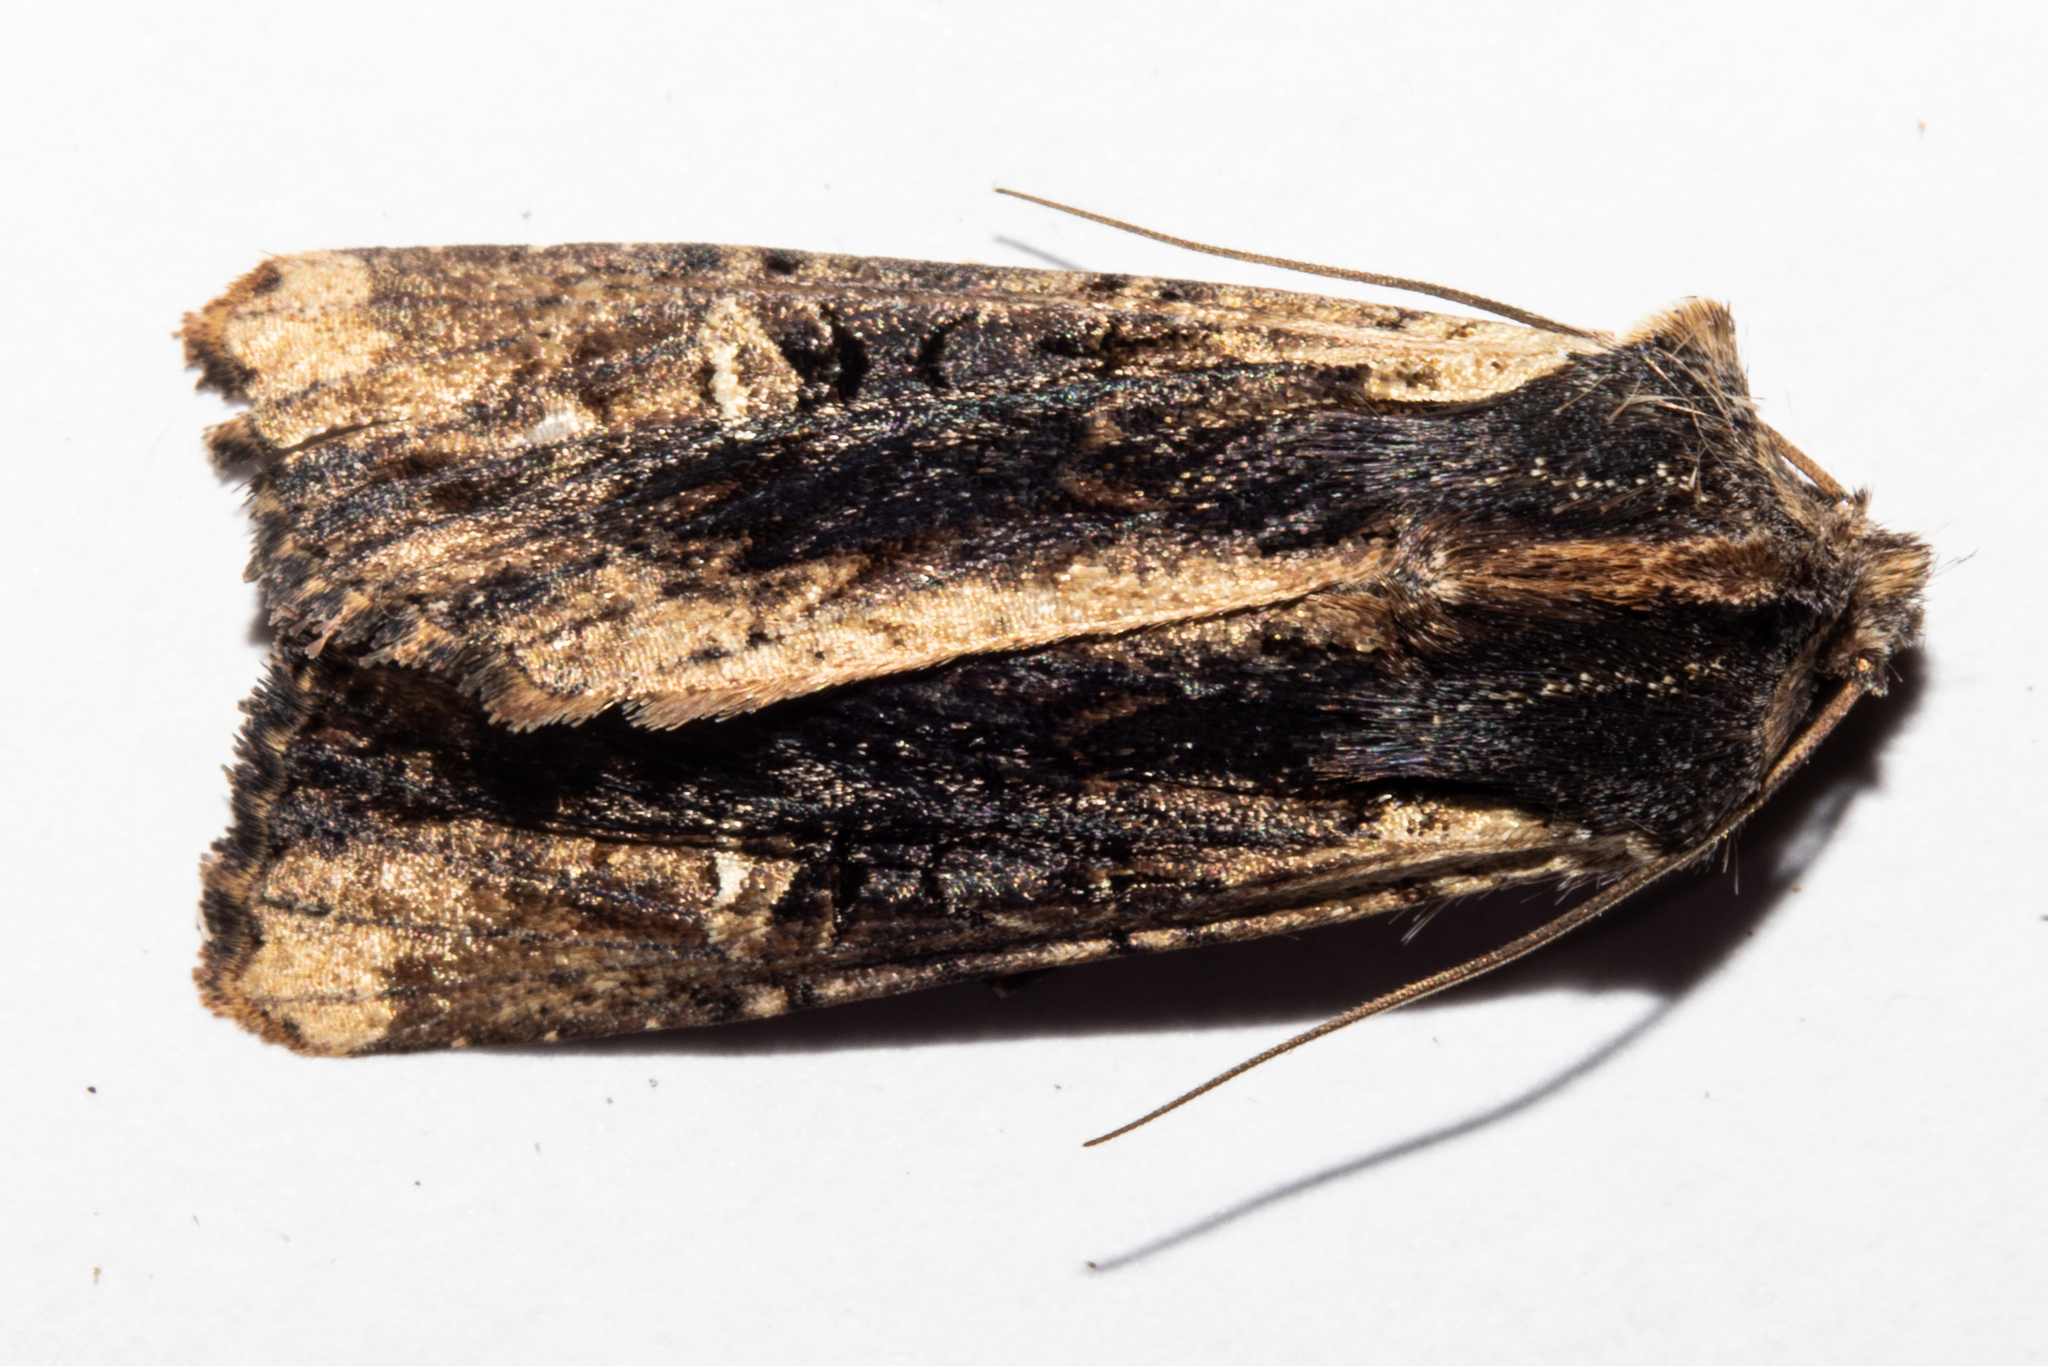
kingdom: Animalia
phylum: Arthropoda
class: Insecta
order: Lepidoptera
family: Noctuidae
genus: Ichneutica
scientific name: Ichneutica omoplaca
